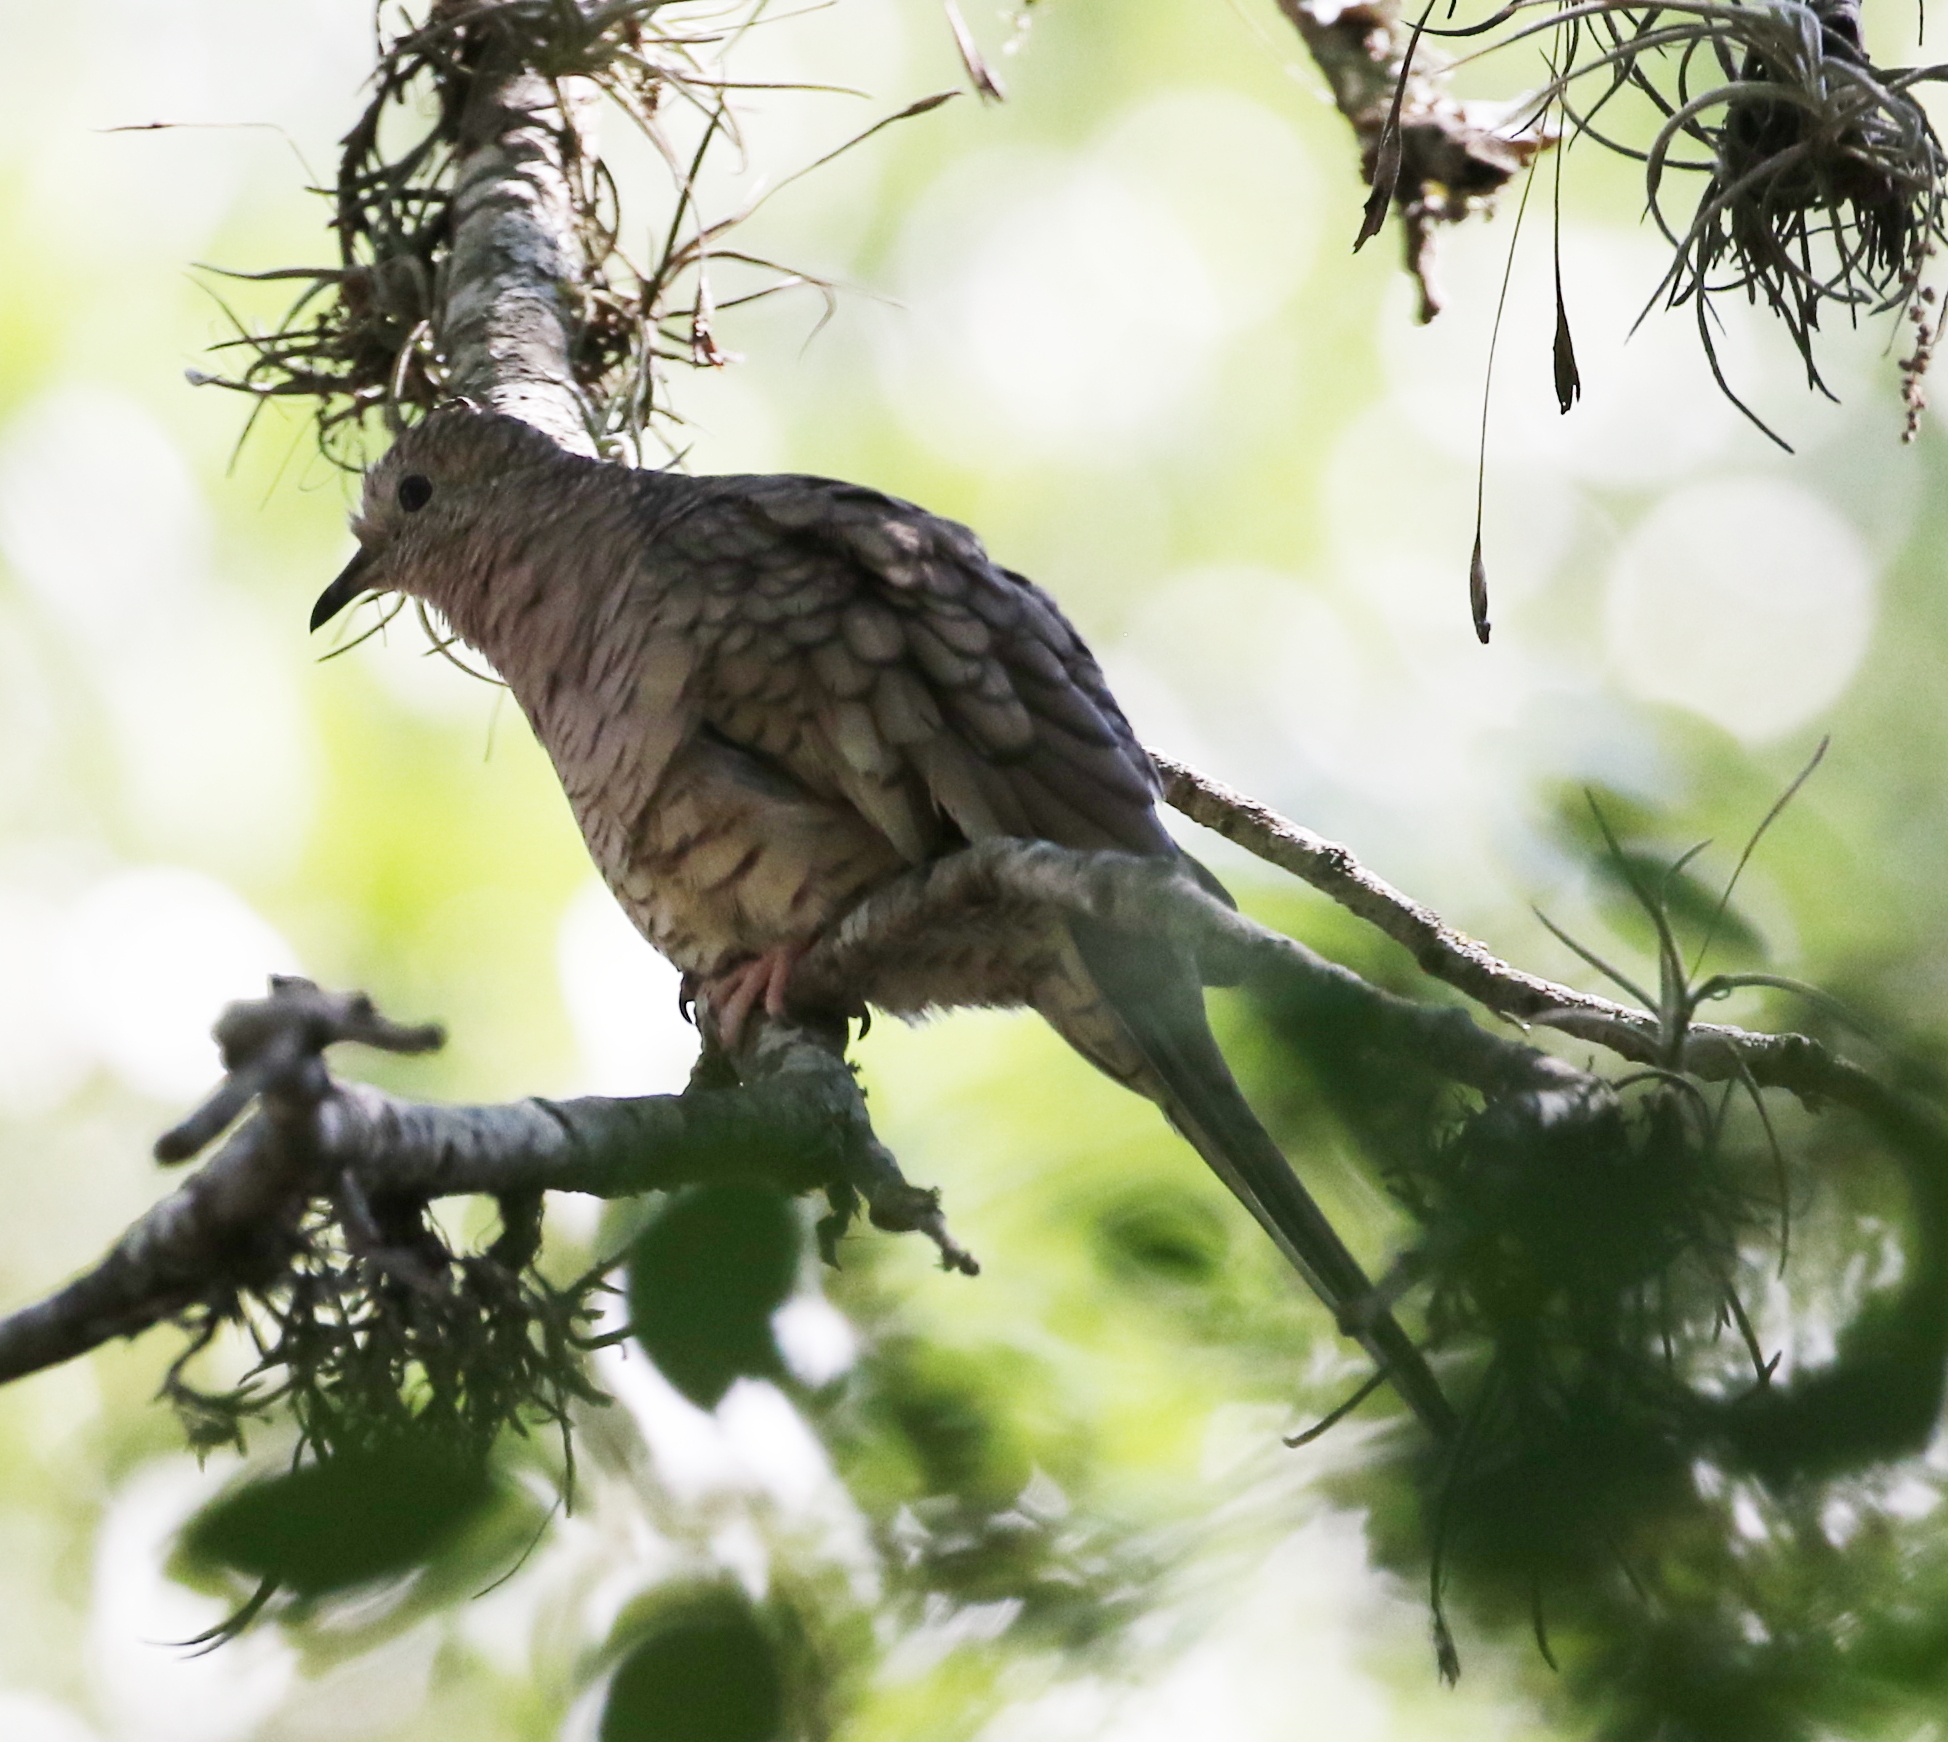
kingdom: Animalia
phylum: Chordata
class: Aves
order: Columbiformes
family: Columbidae
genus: Columbina
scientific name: Columbina inca
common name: Inca dove
